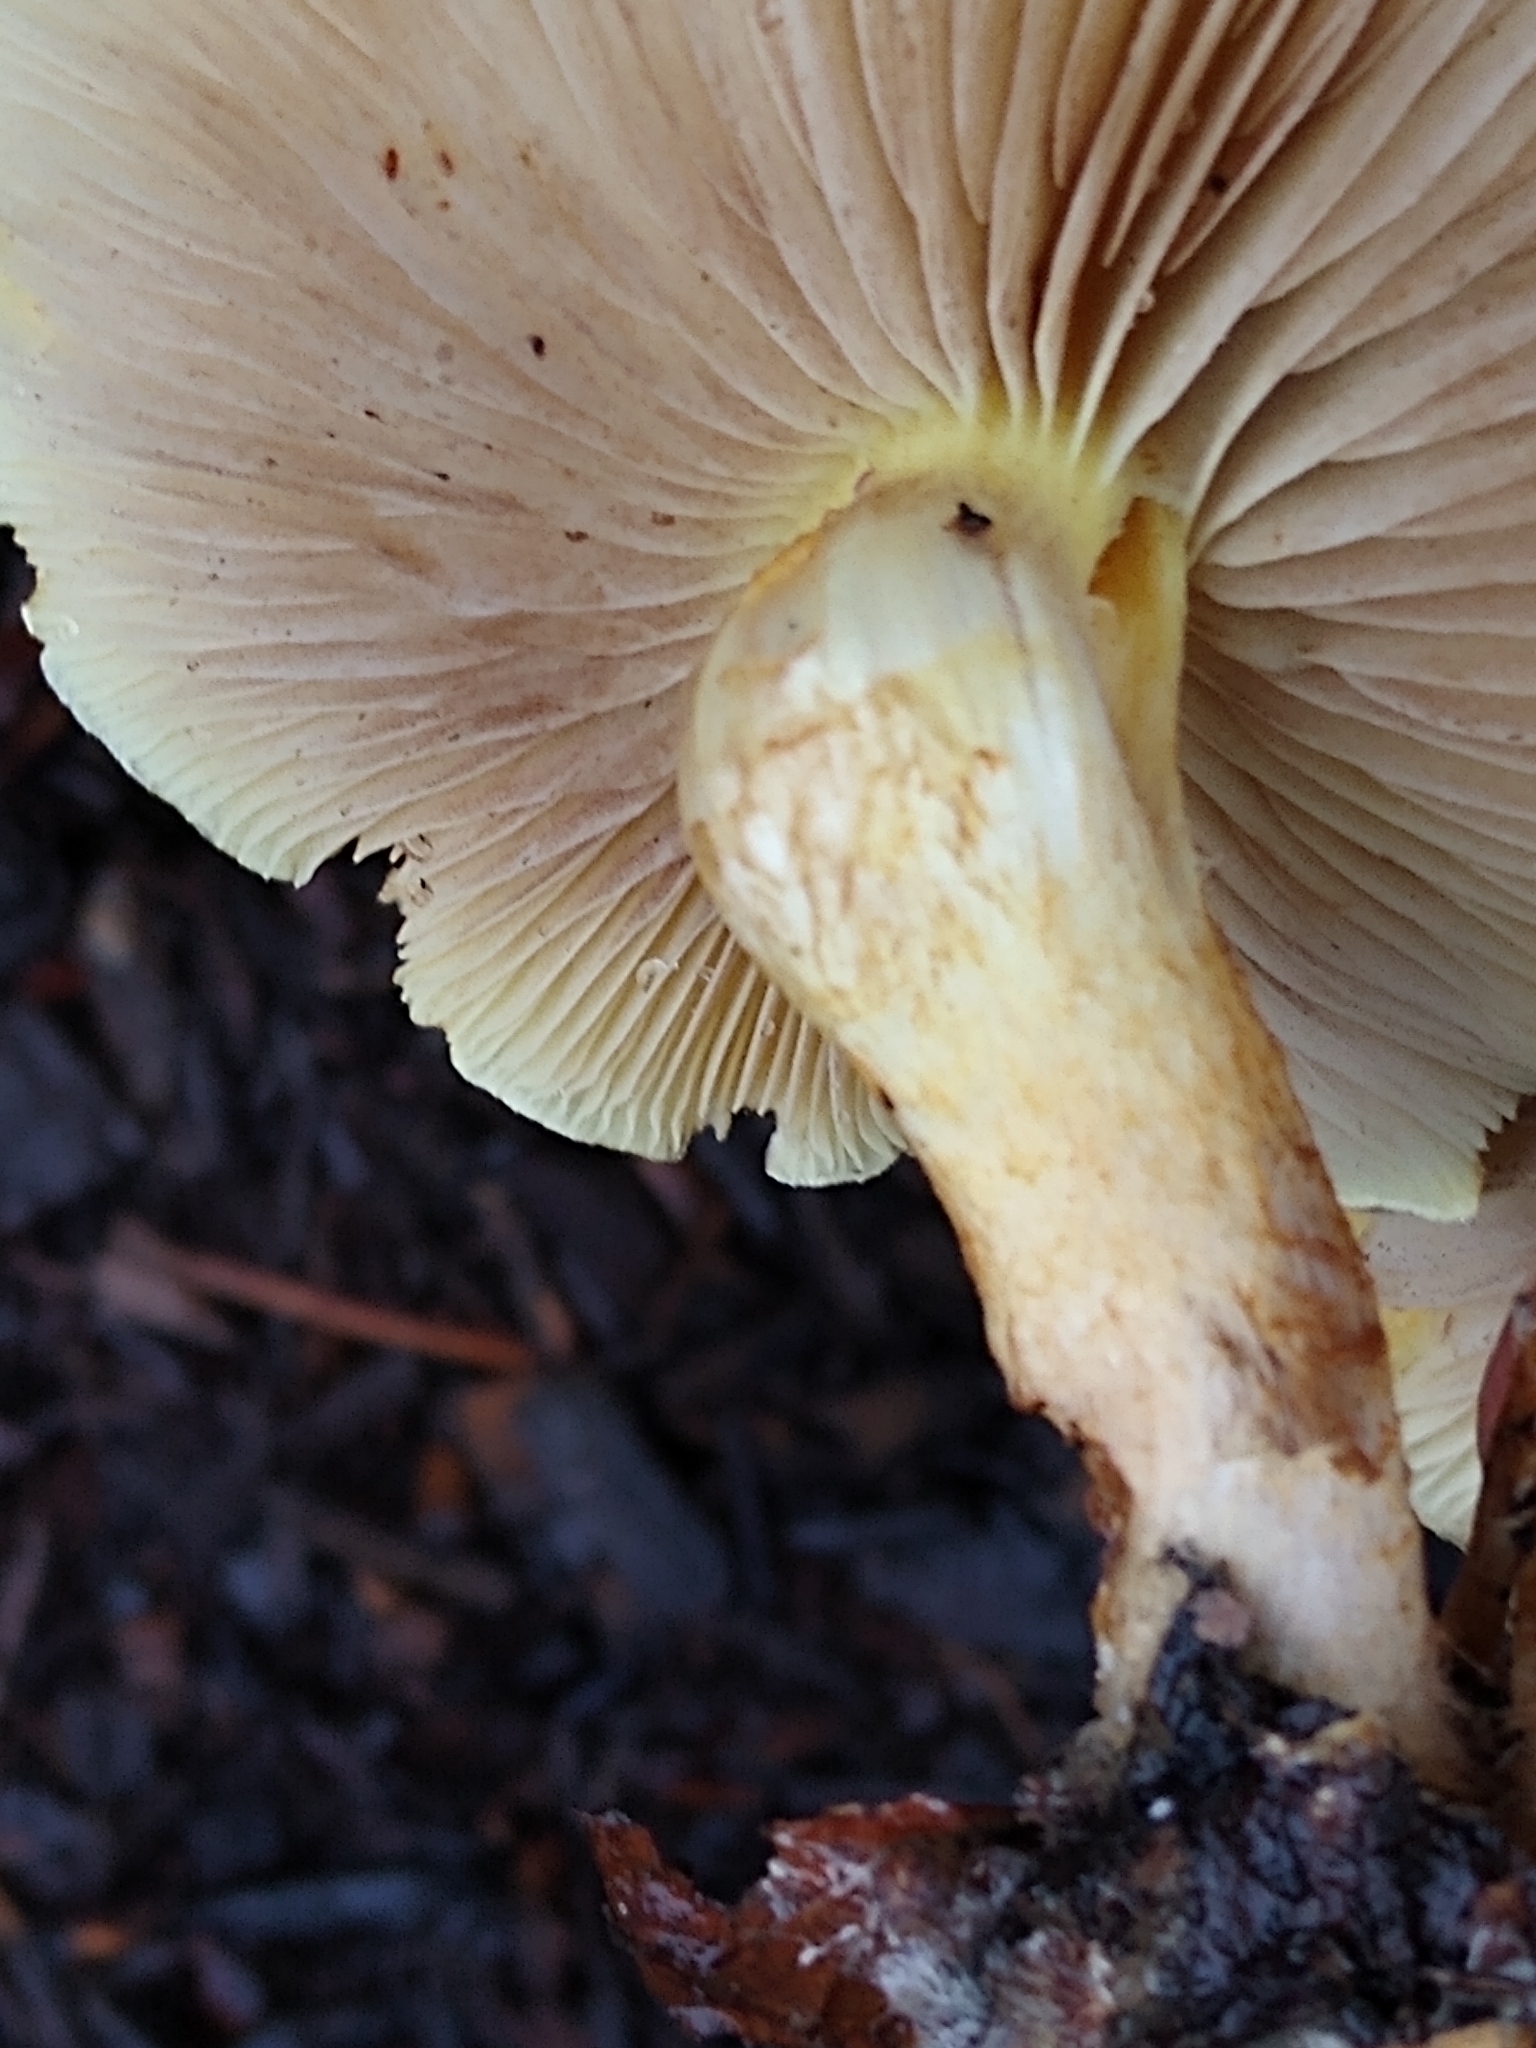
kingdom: Fungi
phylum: Basidiomycota
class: Agaricomycetes
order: Agaricales
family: Strophariaceae
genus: Pholiota
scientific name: Pholiota spumosa
